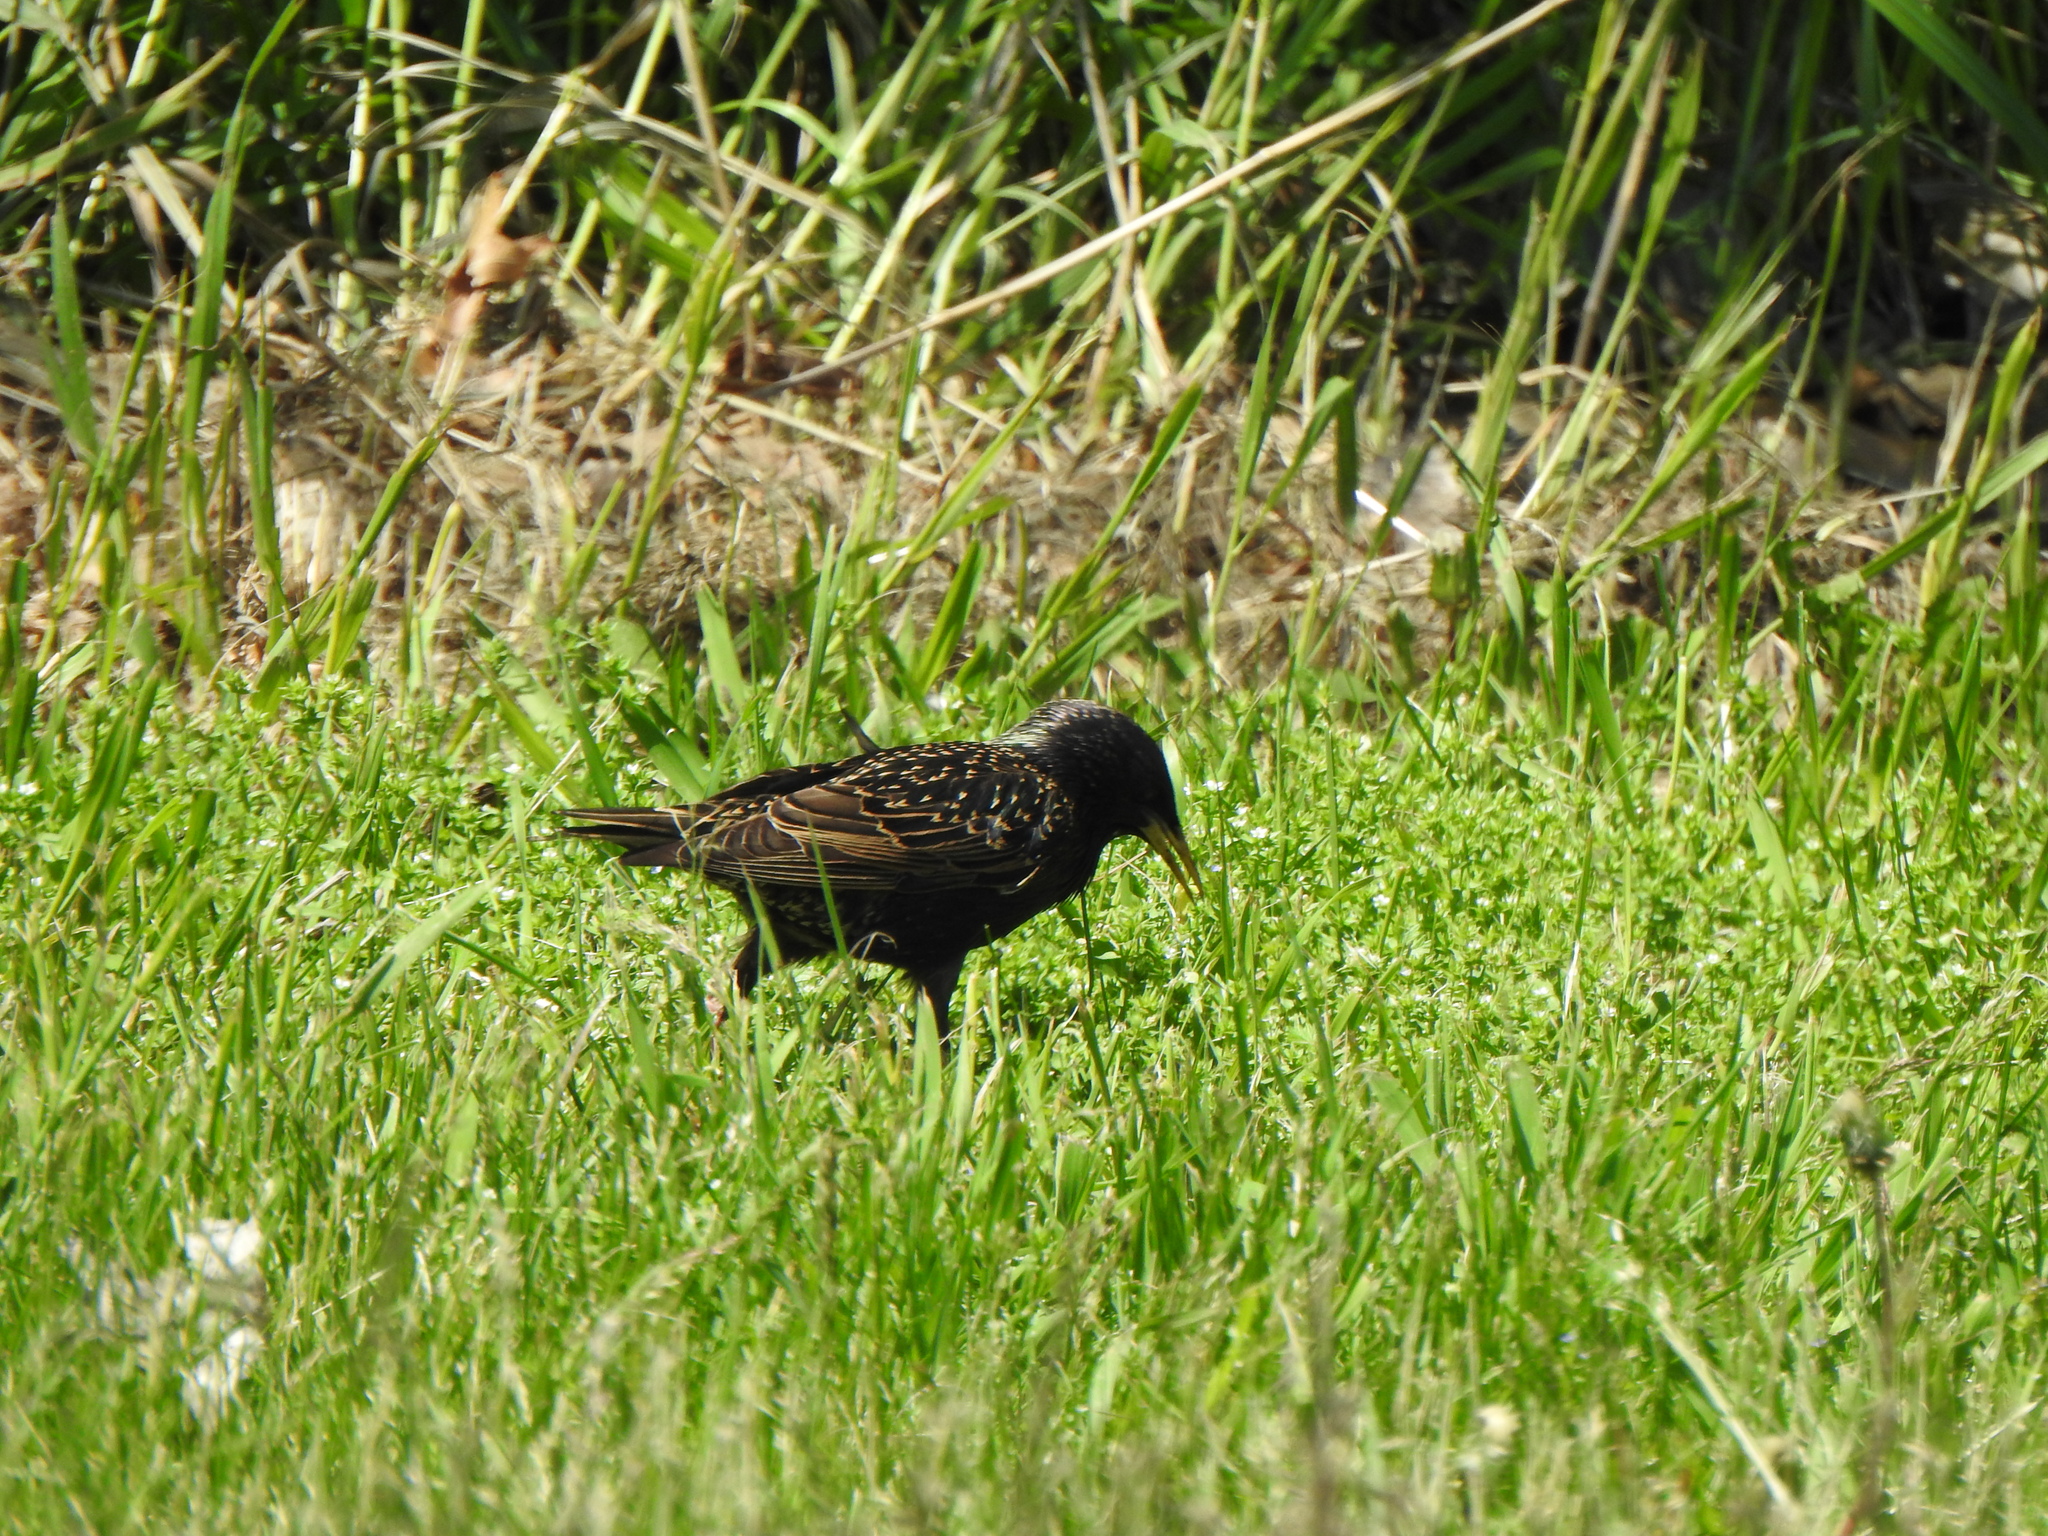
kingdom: Animalia
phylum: Chordata
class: Aves
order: Passeriformes
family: Sturnidae
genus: Sturnus
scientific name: Sturnus vulgaris
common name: Common starling
